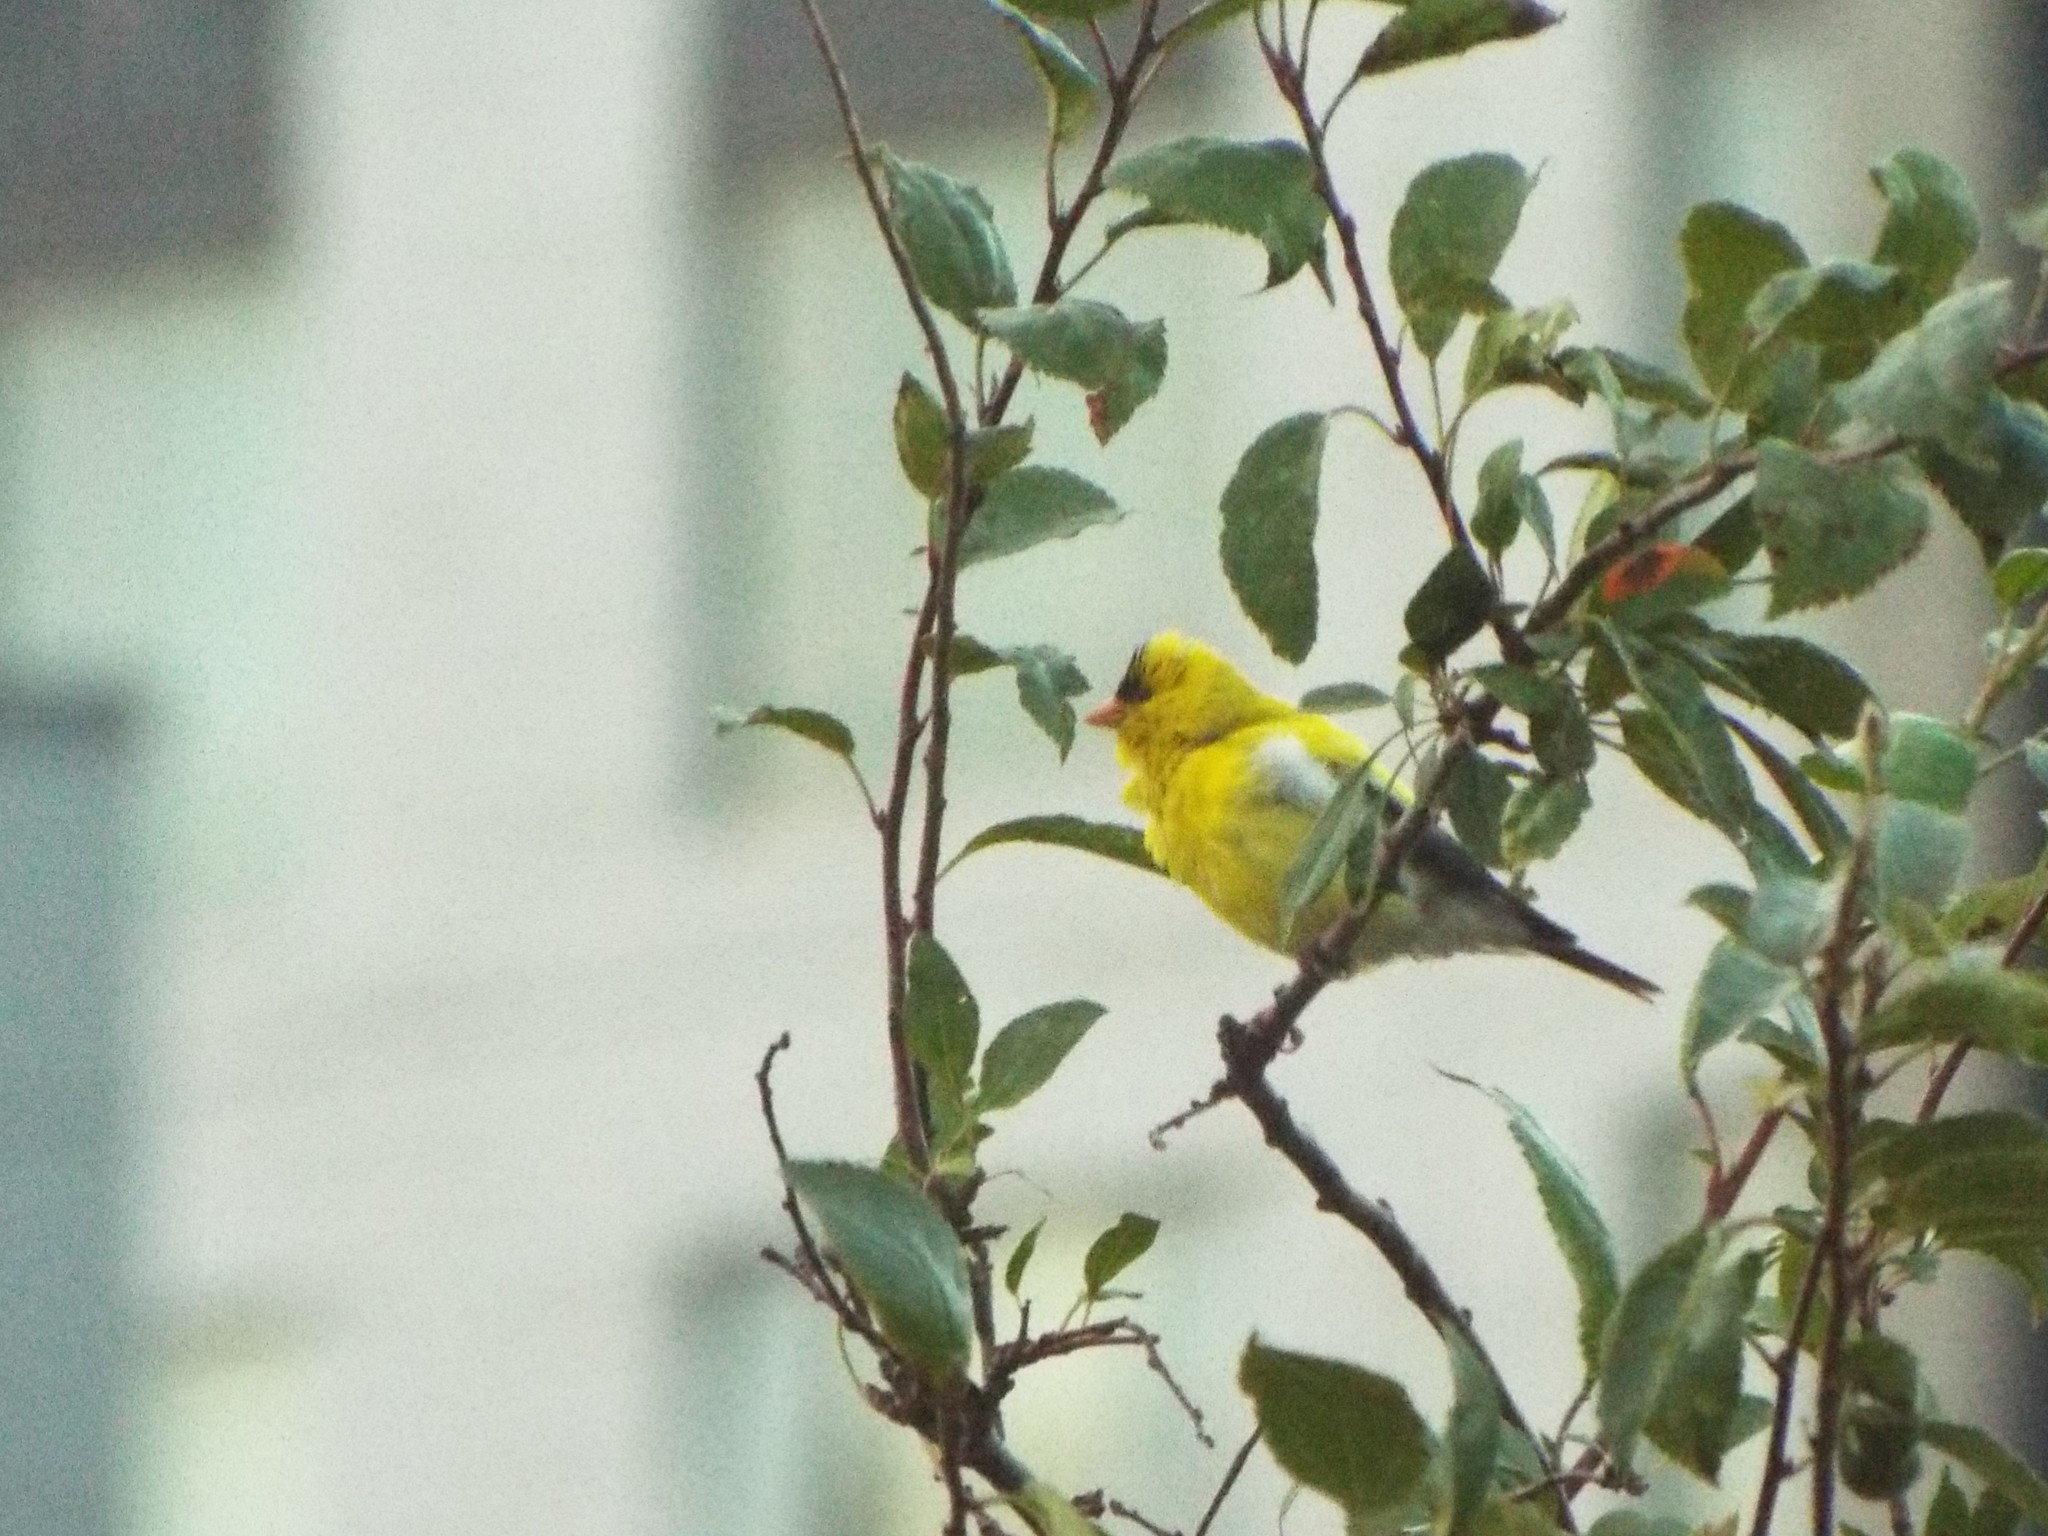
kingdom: Animalia
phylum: Chordata
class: Aves
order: Passeriformes
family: Fringillidae
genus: Spinus
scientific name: Spinus tristis
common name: American goldfinch
